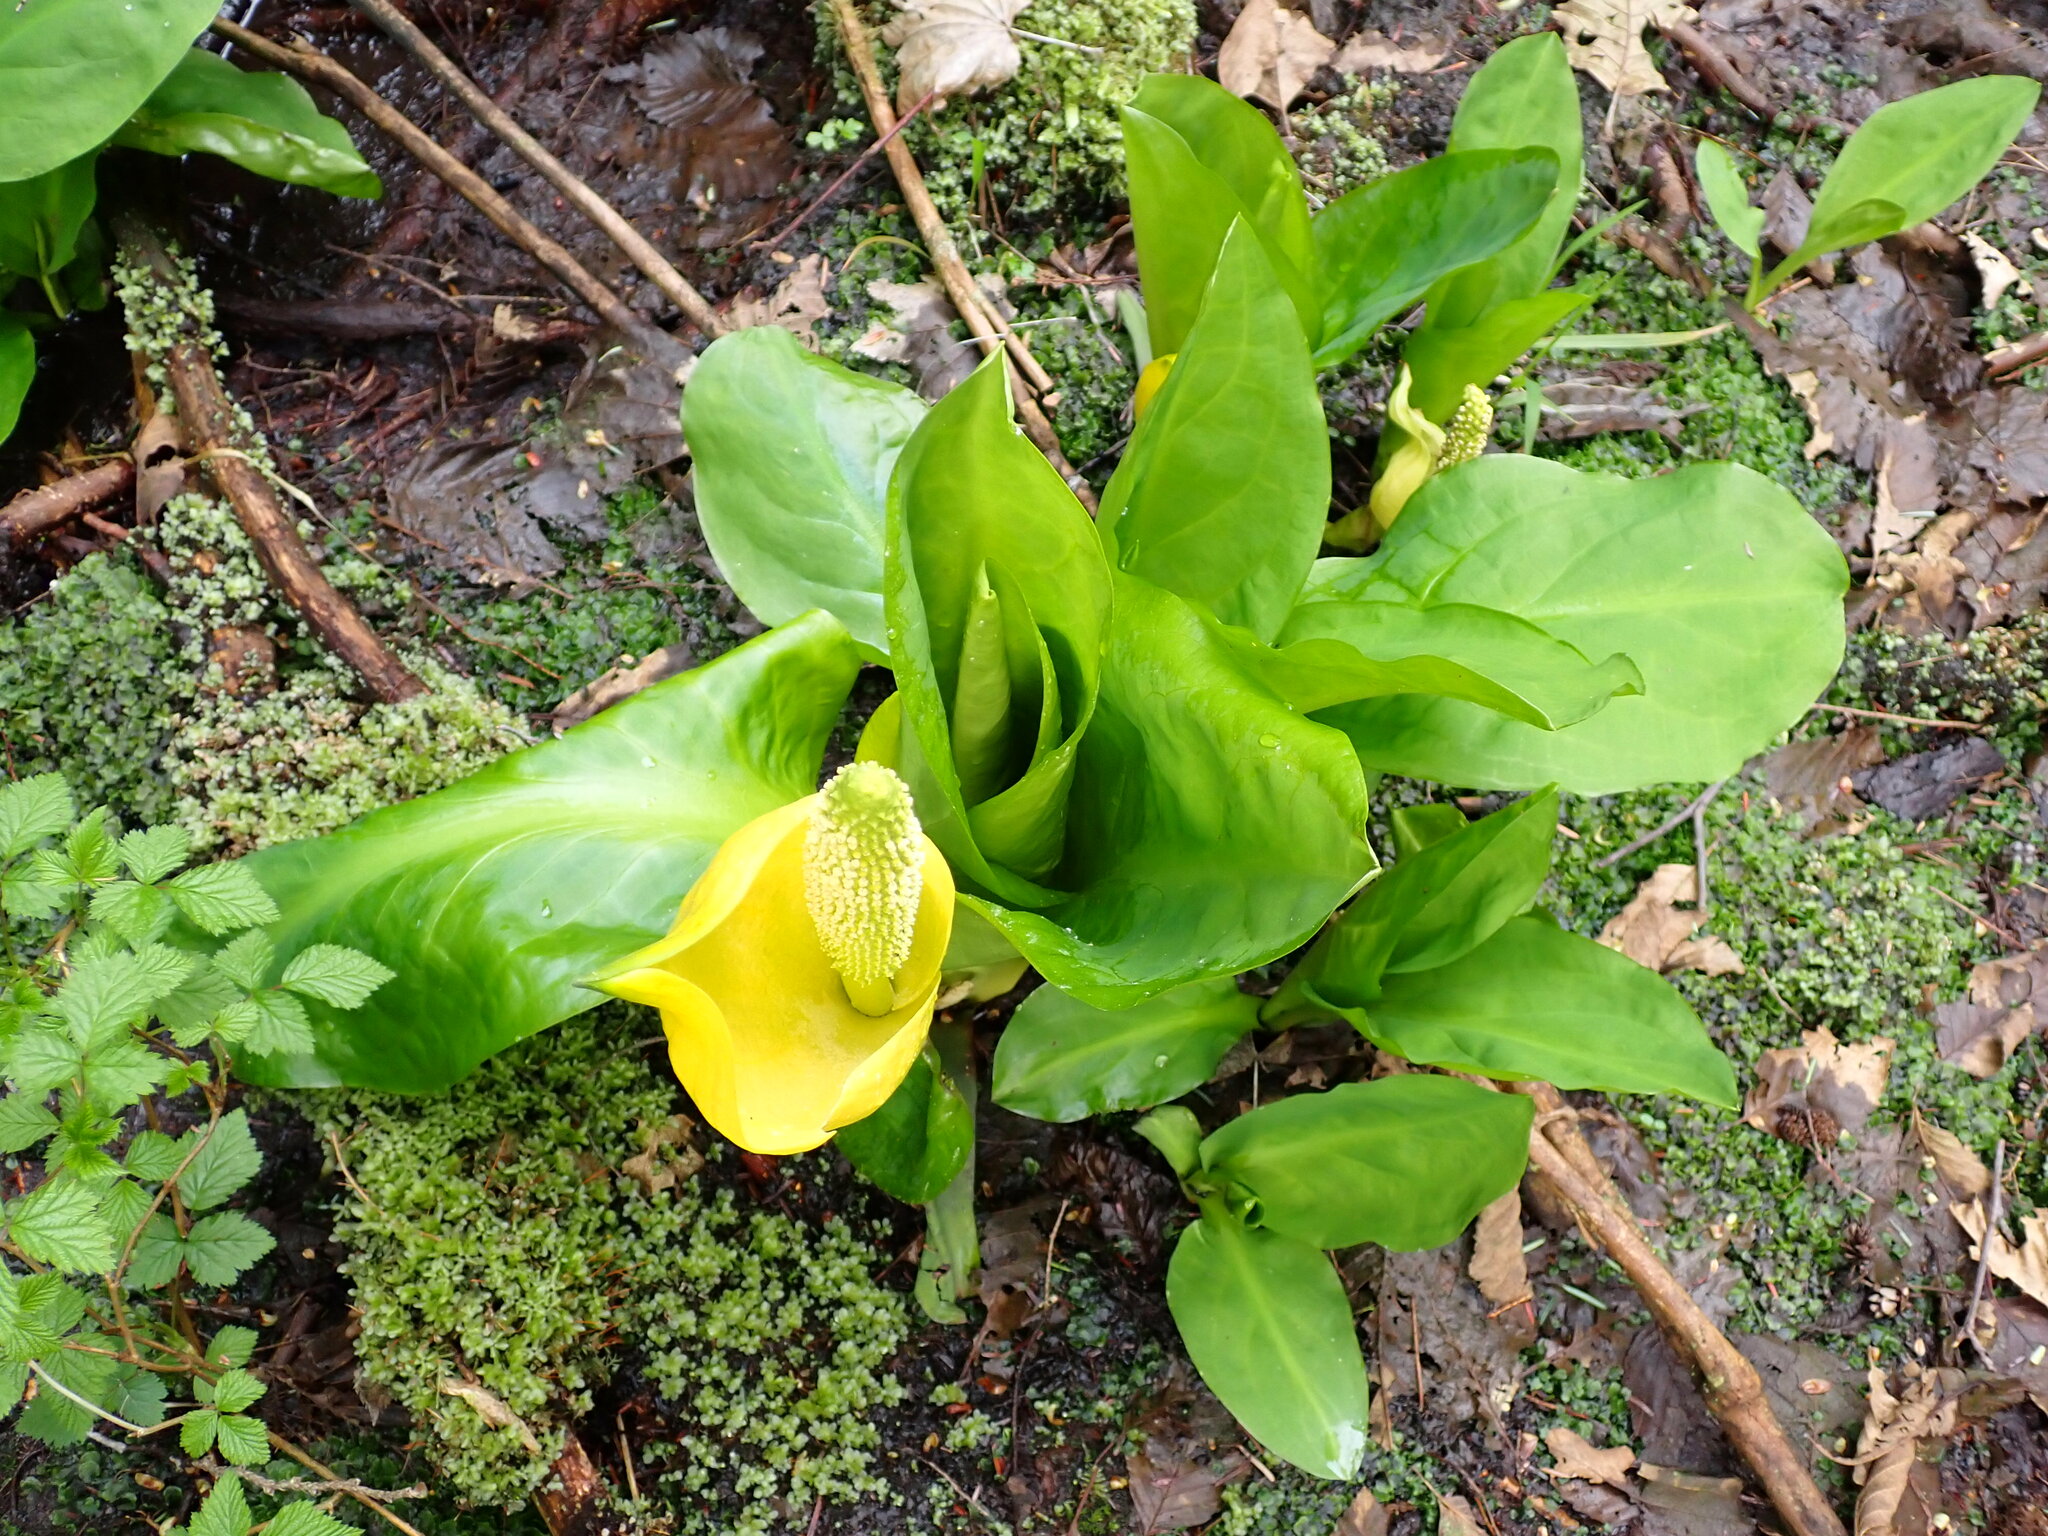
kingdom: Plantae
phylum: Tracheophyta
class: Liliopsida
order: Alismatales
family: Araceae
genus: Lysichiton
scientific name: Lysichiton americanus
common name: American skunk cabbage
